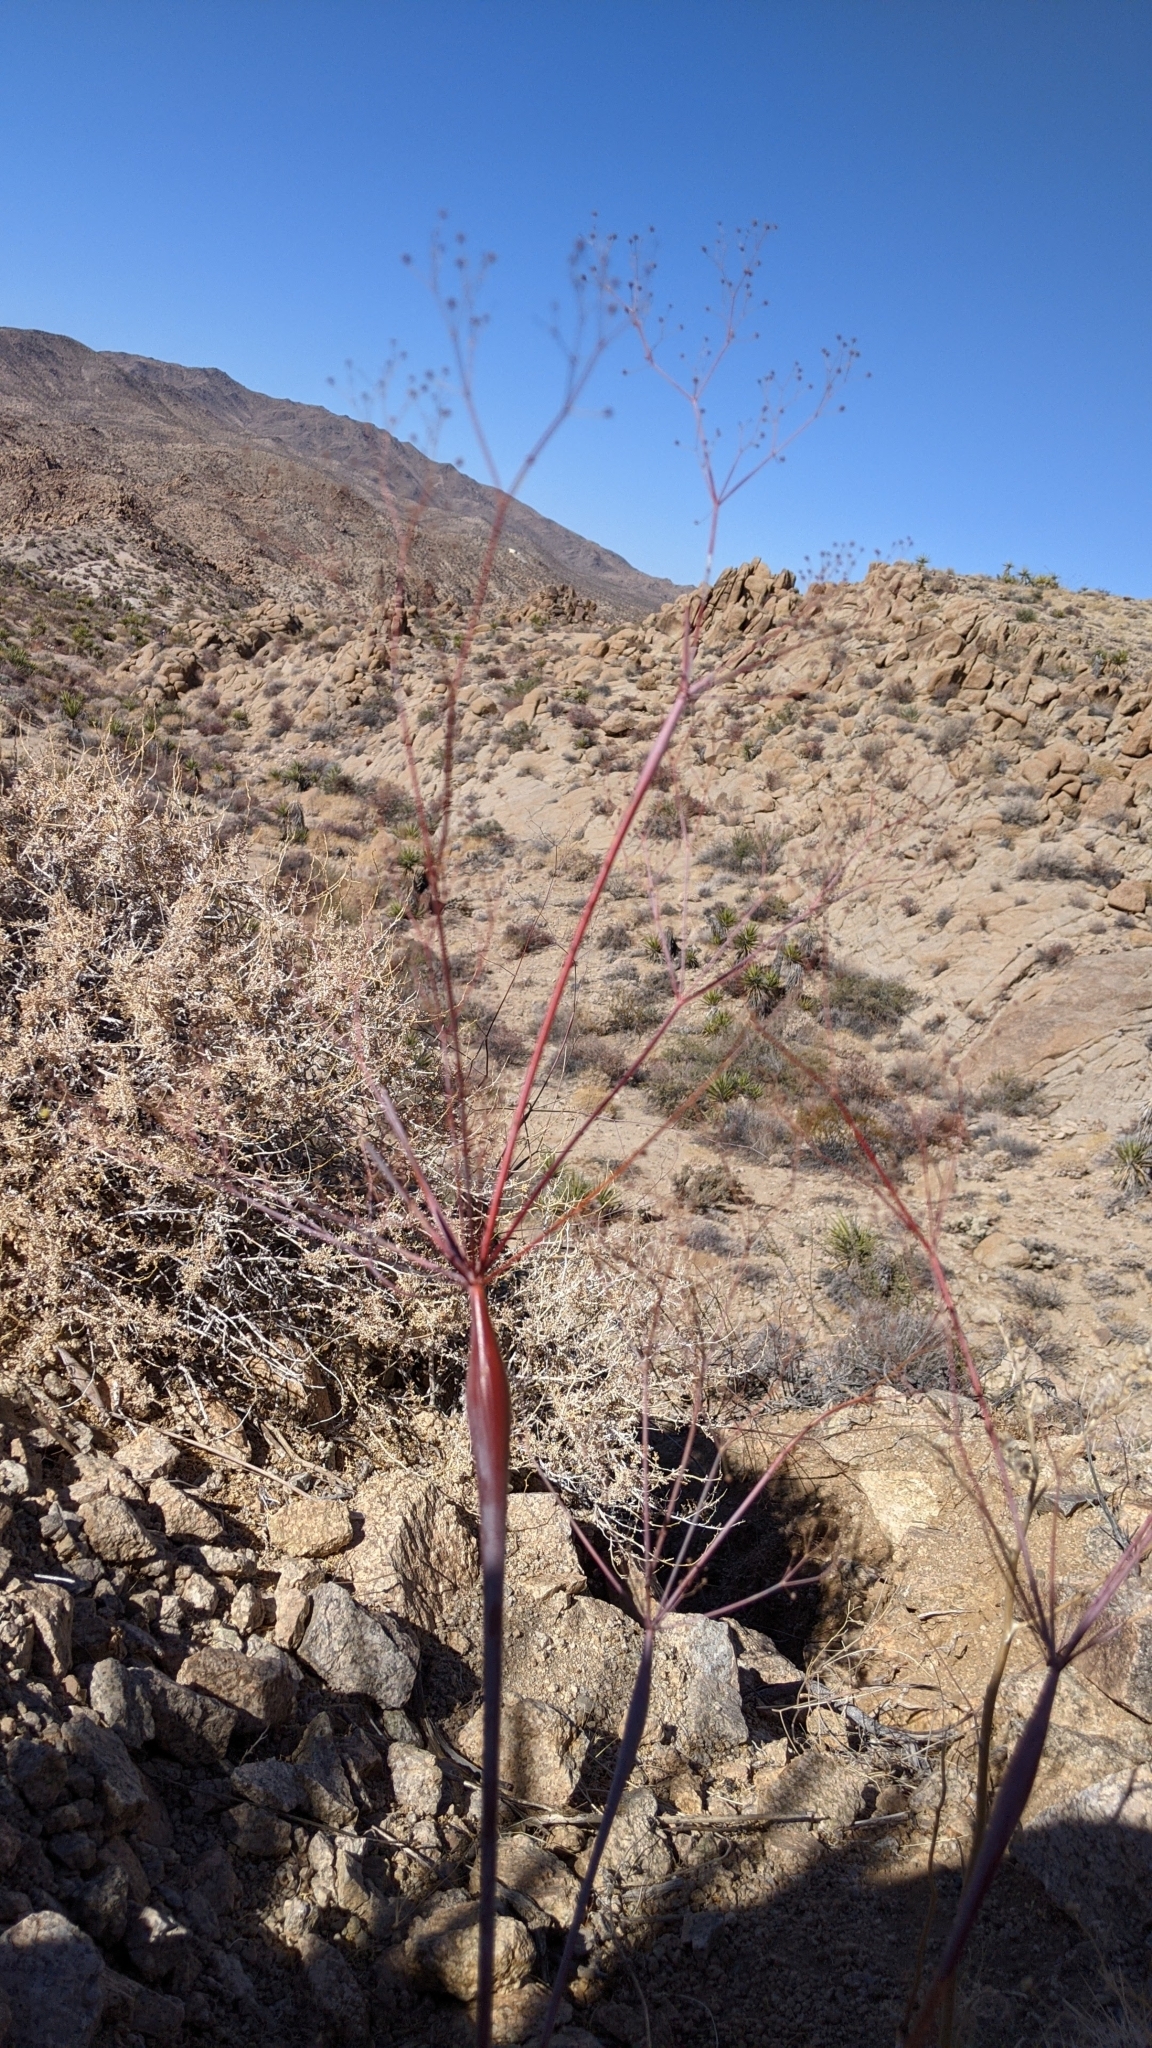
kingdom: Plantae
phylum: Tracheophyta
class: Magnoliopsida
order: Caryophyllales
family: Polygonaceae
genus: Eriogonum
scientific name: Eriogonum inflatum
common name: Desert trumpet
